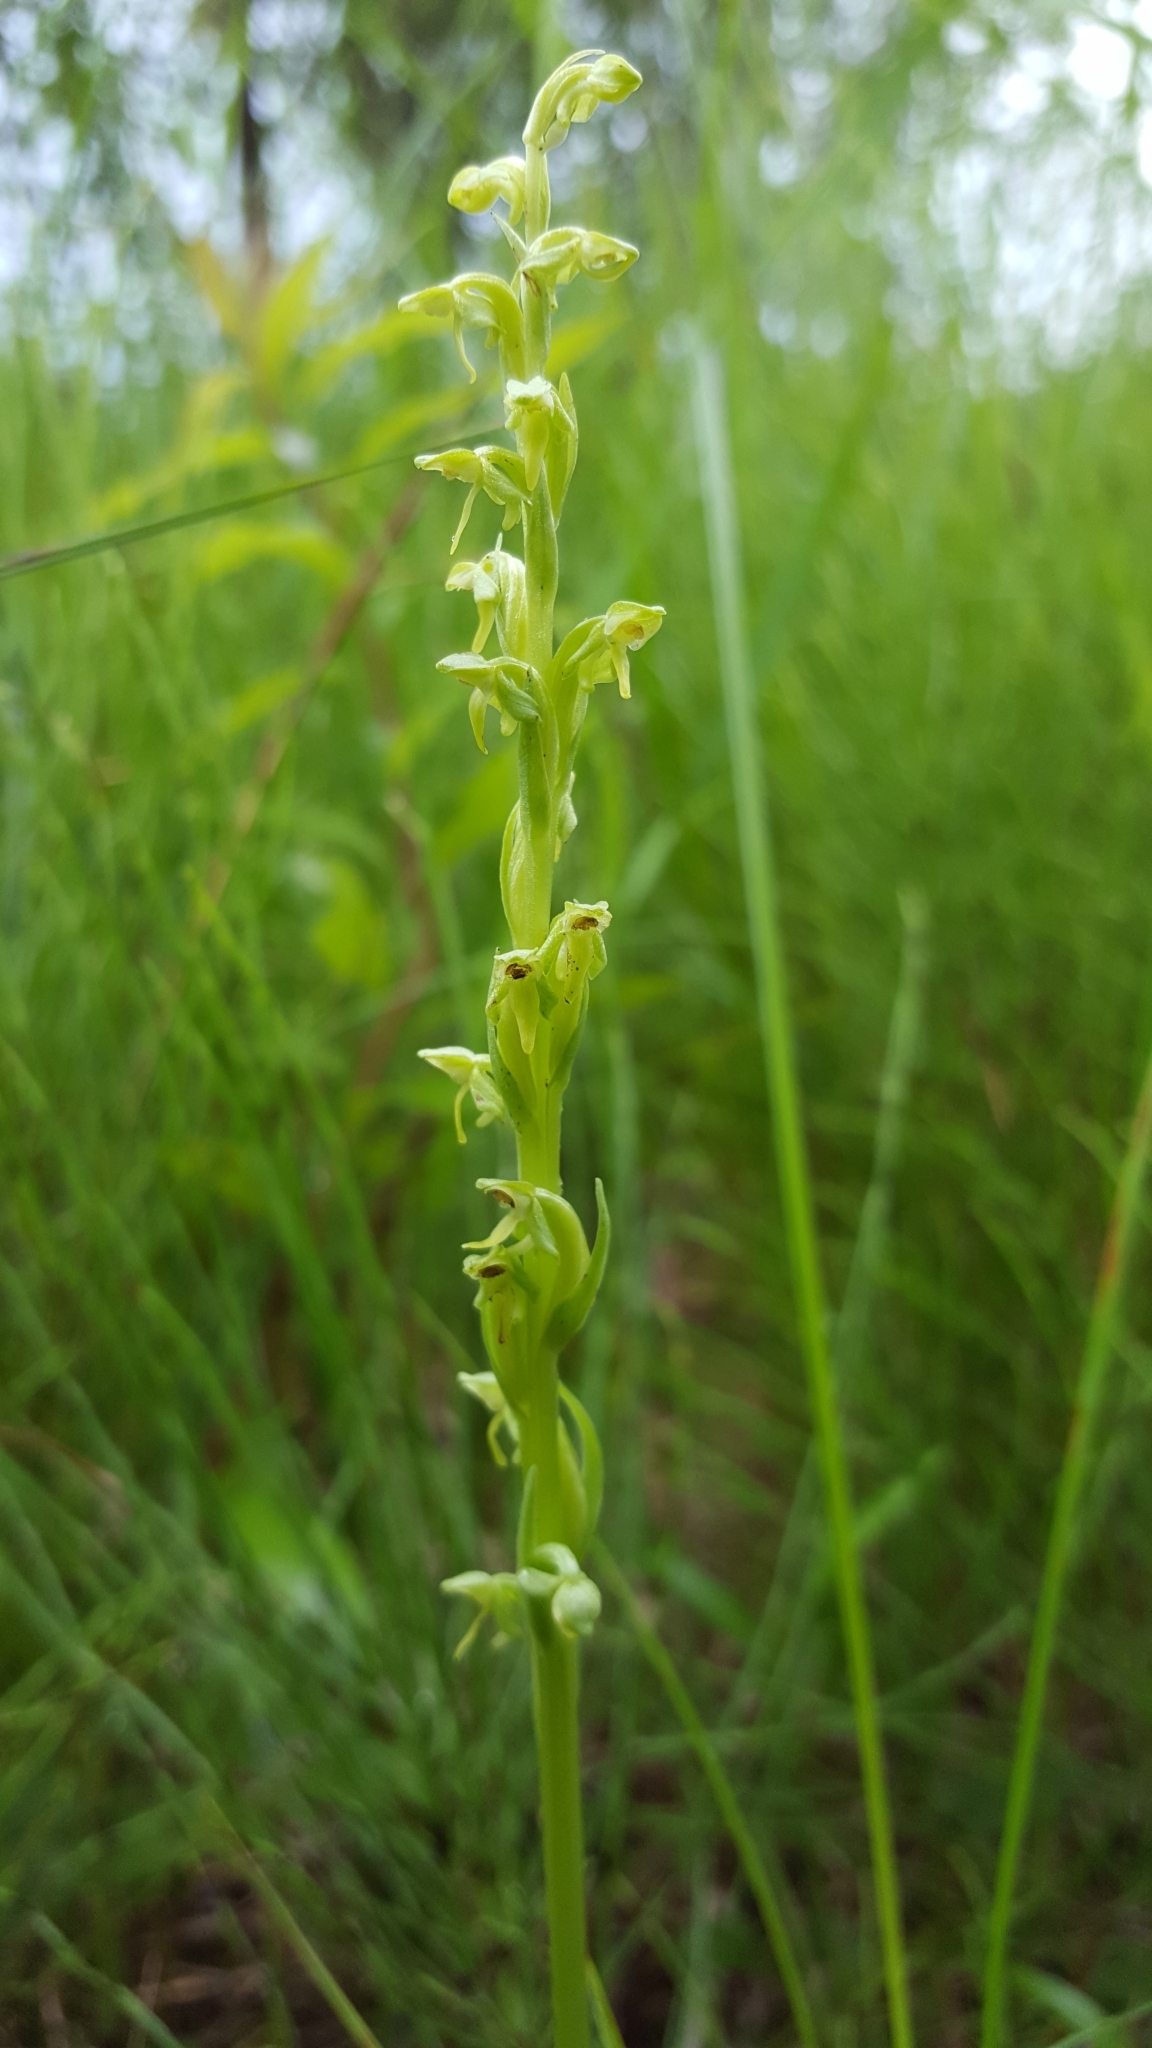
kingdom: Plantae
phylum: Tracheophyta
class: Liliopsida
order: Asparagales
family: Orchidaceae
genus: Platanthera
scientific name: Platanthera aquilonis
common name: Northern green orchid
